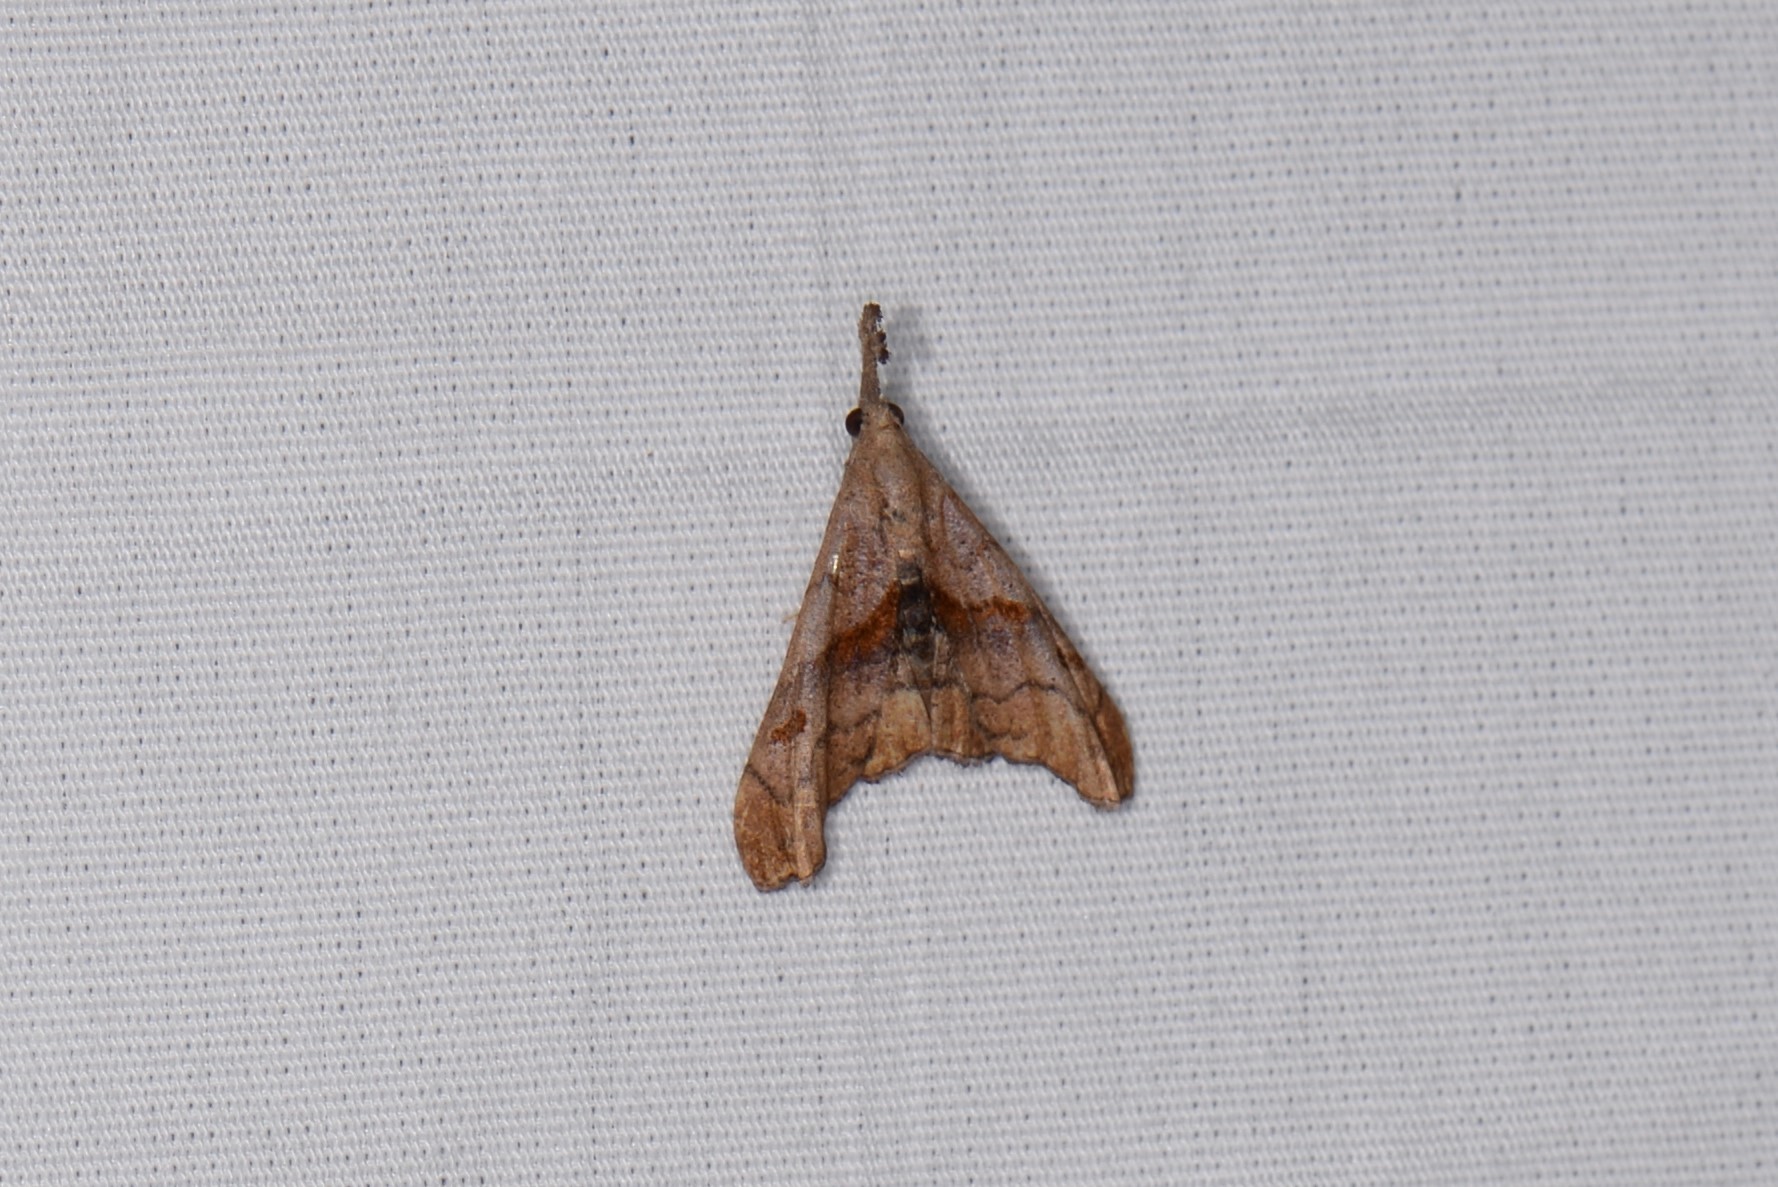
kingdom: Animalia
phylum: Arthropoda
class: Insecta
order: Lepidoptera
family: Erebidae
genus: Palthis
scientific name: Palthis angulalis
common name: Dark-spotted palthis moth
